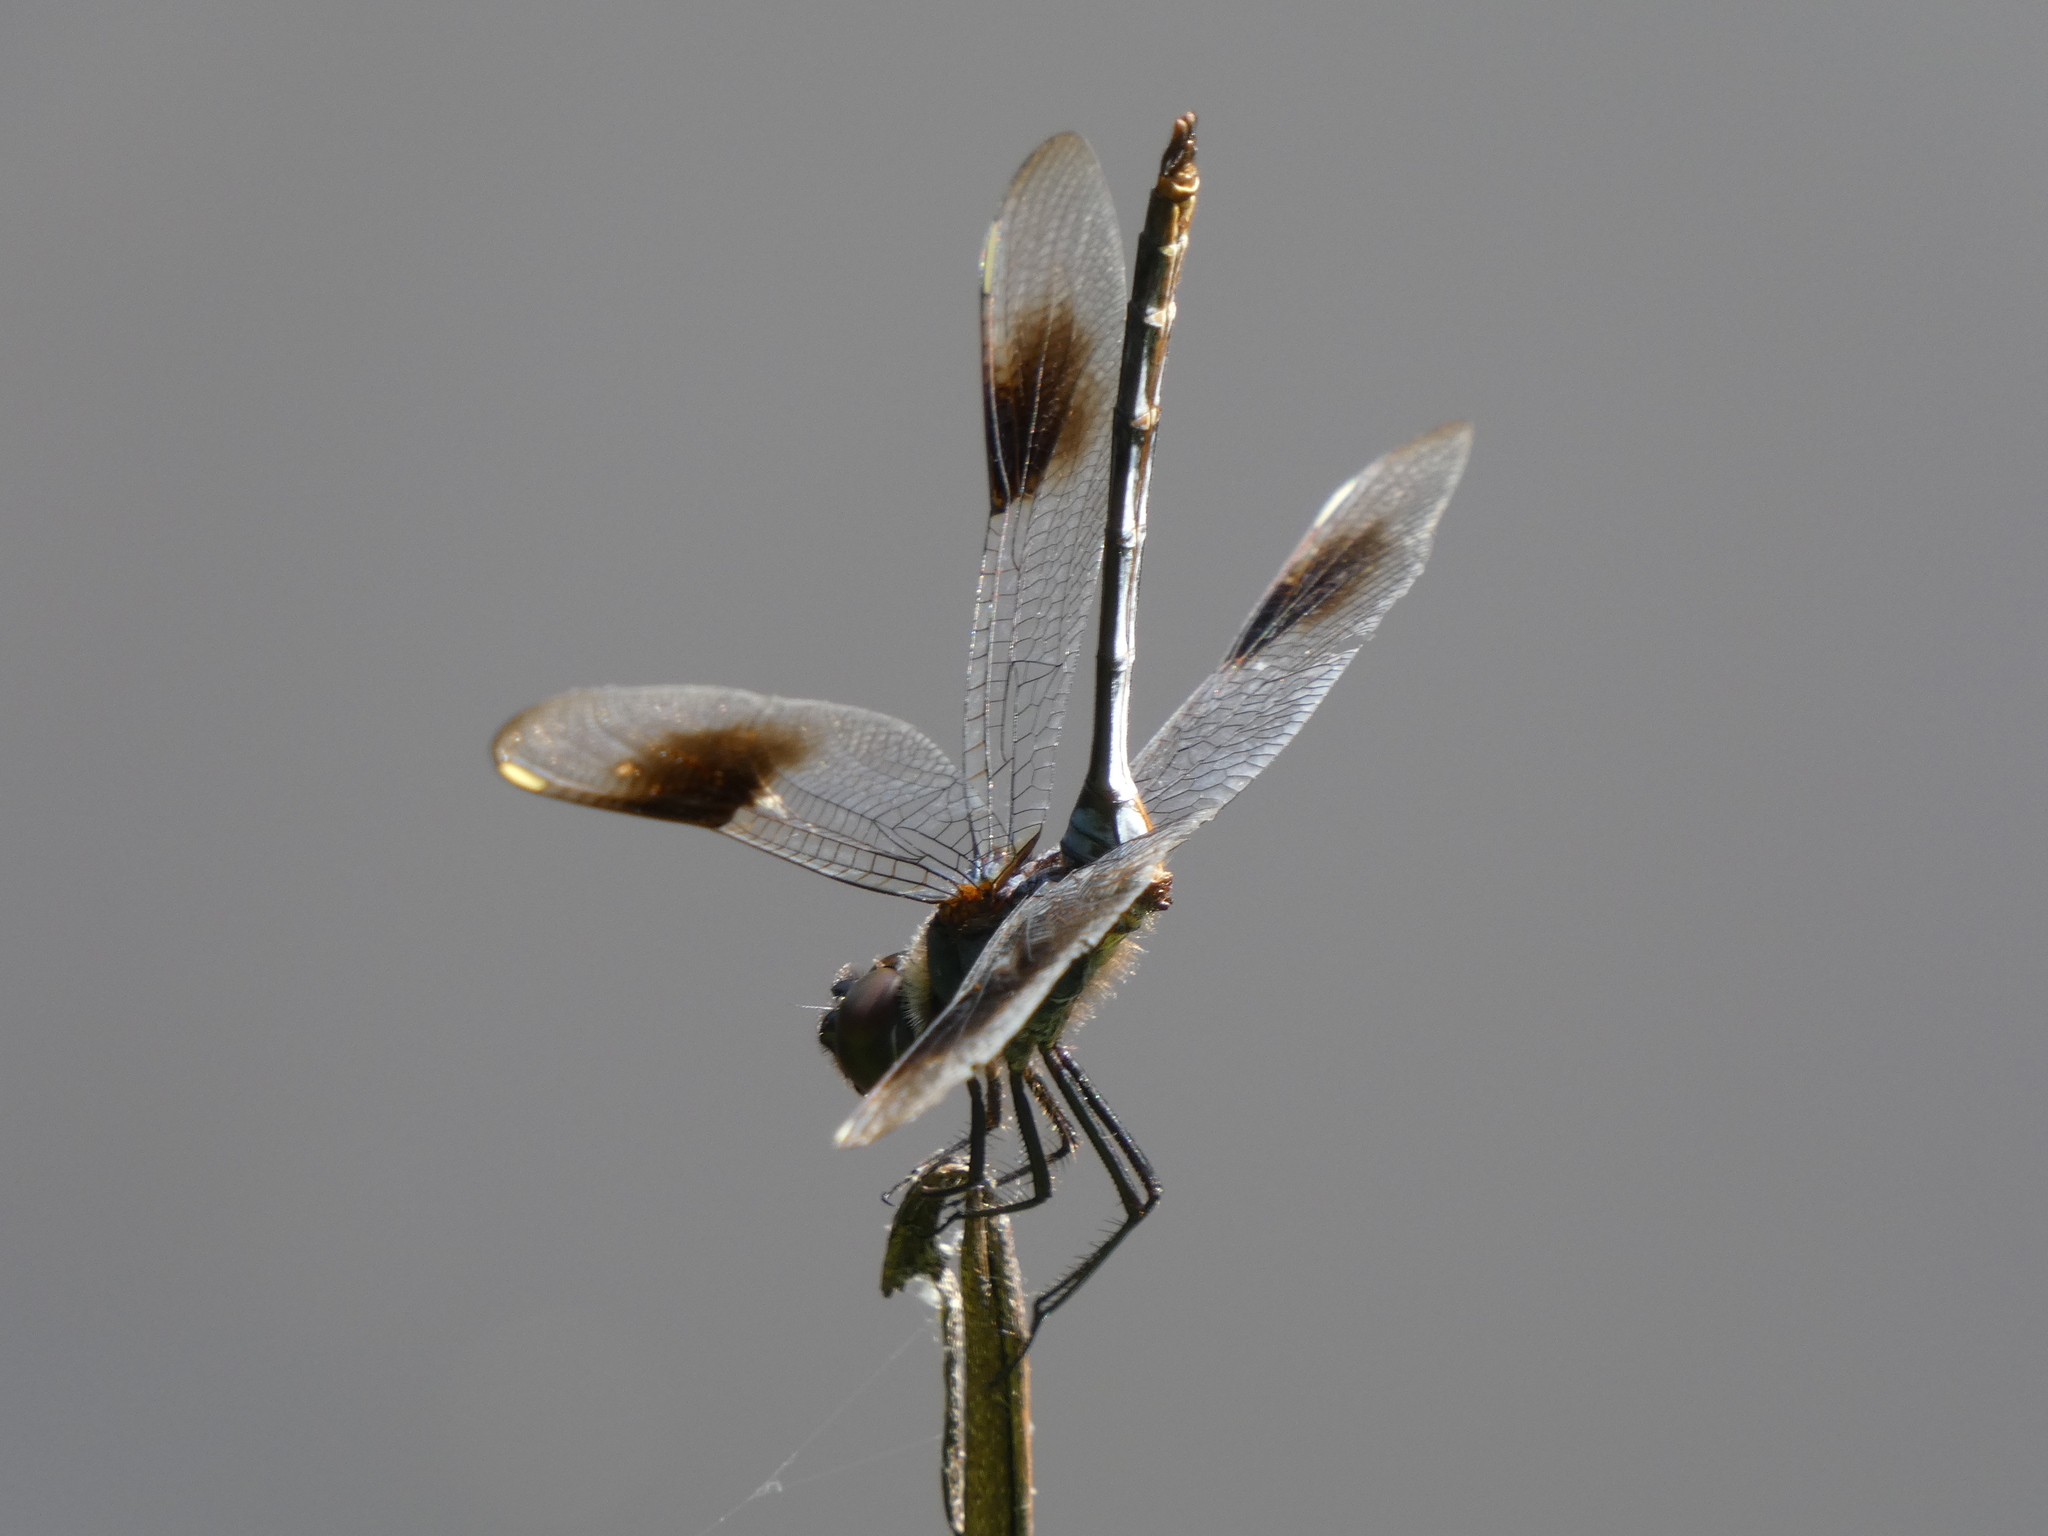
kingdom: Animalia
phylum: Arthropoda
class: Insecta
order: Odonata
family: Libellulidae
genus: Brachymesia
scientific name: Brachymesia gravida
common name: Four-spotted pennant
